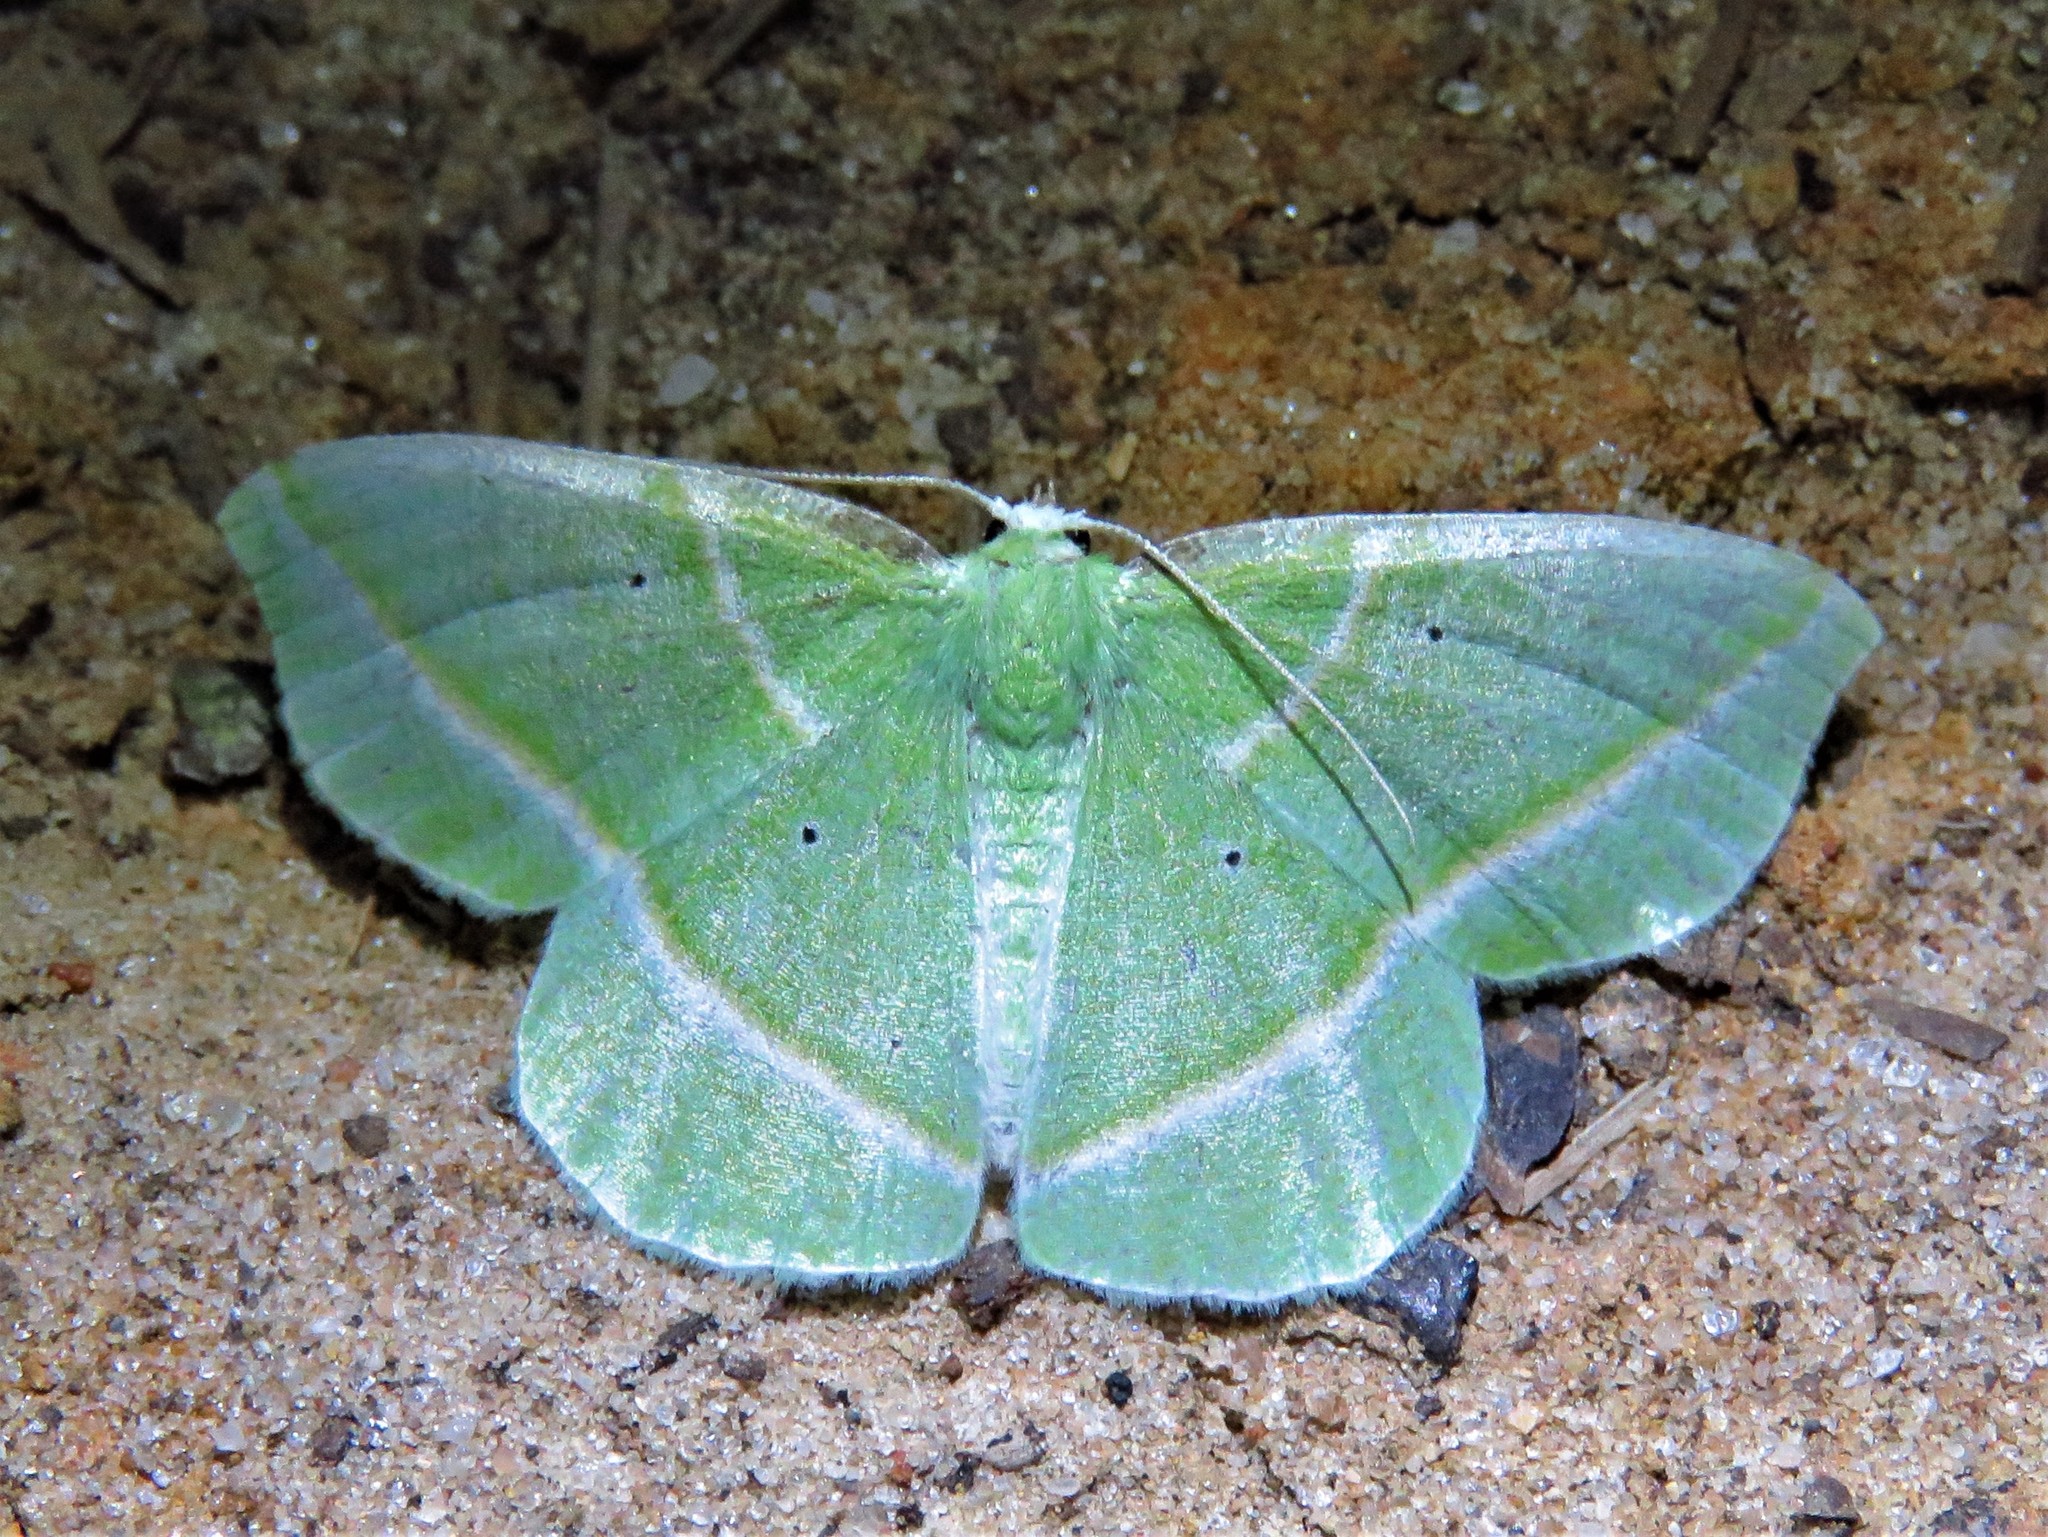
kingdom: Animalia
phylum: Arthropoda
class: Insecta
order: Lepidoptera
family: Geometridae
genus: Dichorda
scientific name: Dichorda iridaria
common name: Showy emerald
